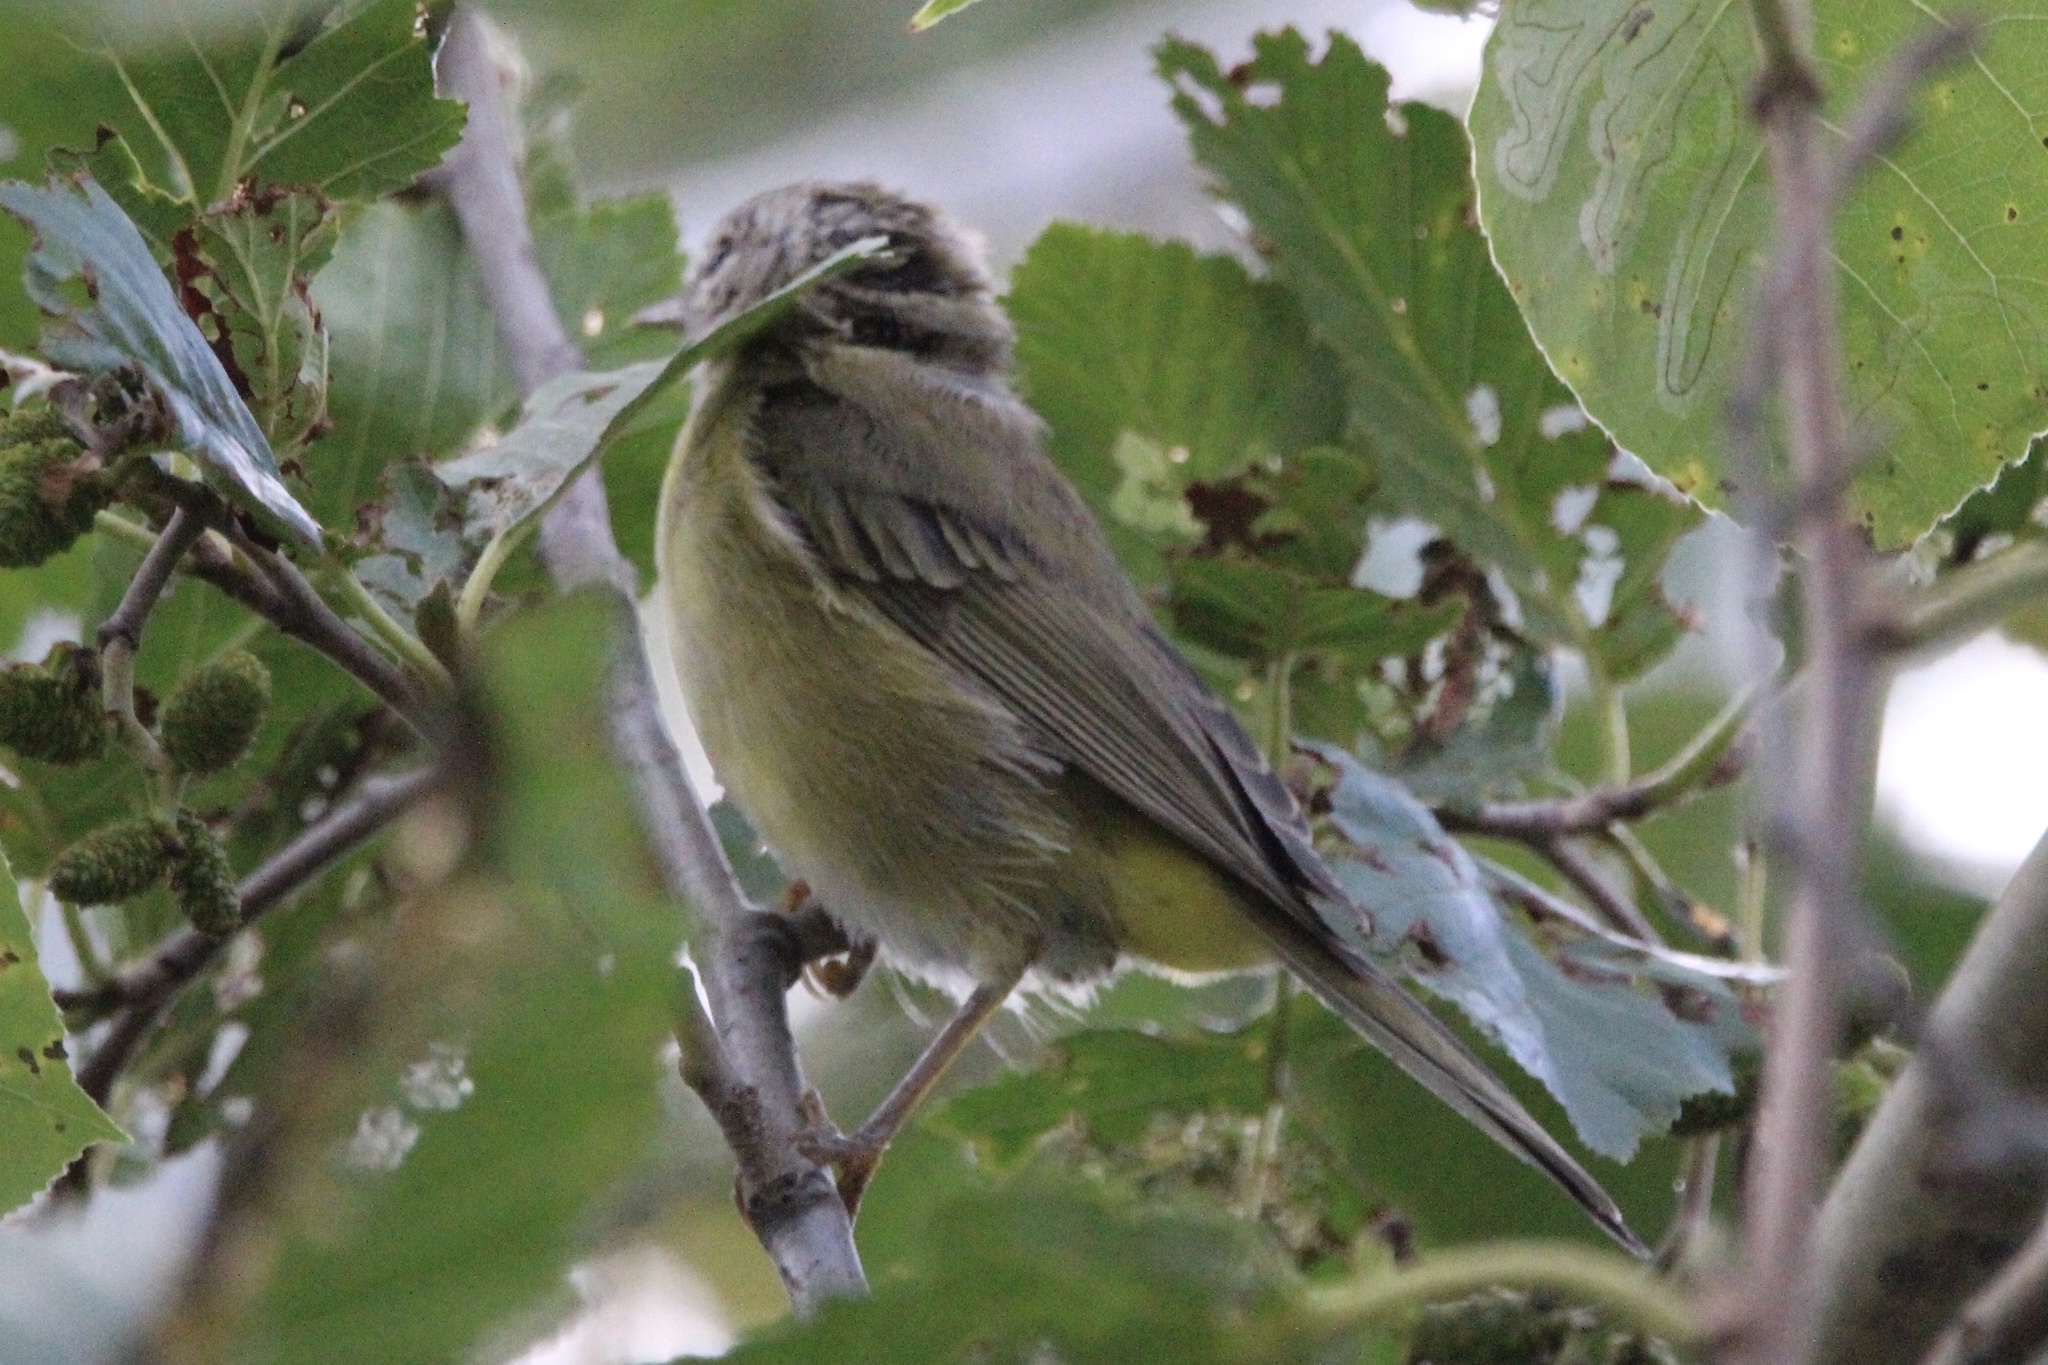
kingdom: Animalia
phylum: Chordata
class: Aves
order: Passeriformes
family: Parulidae
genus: Leiothlypis
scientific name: Leiothlypis celata
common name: Orange-crowned warbler
